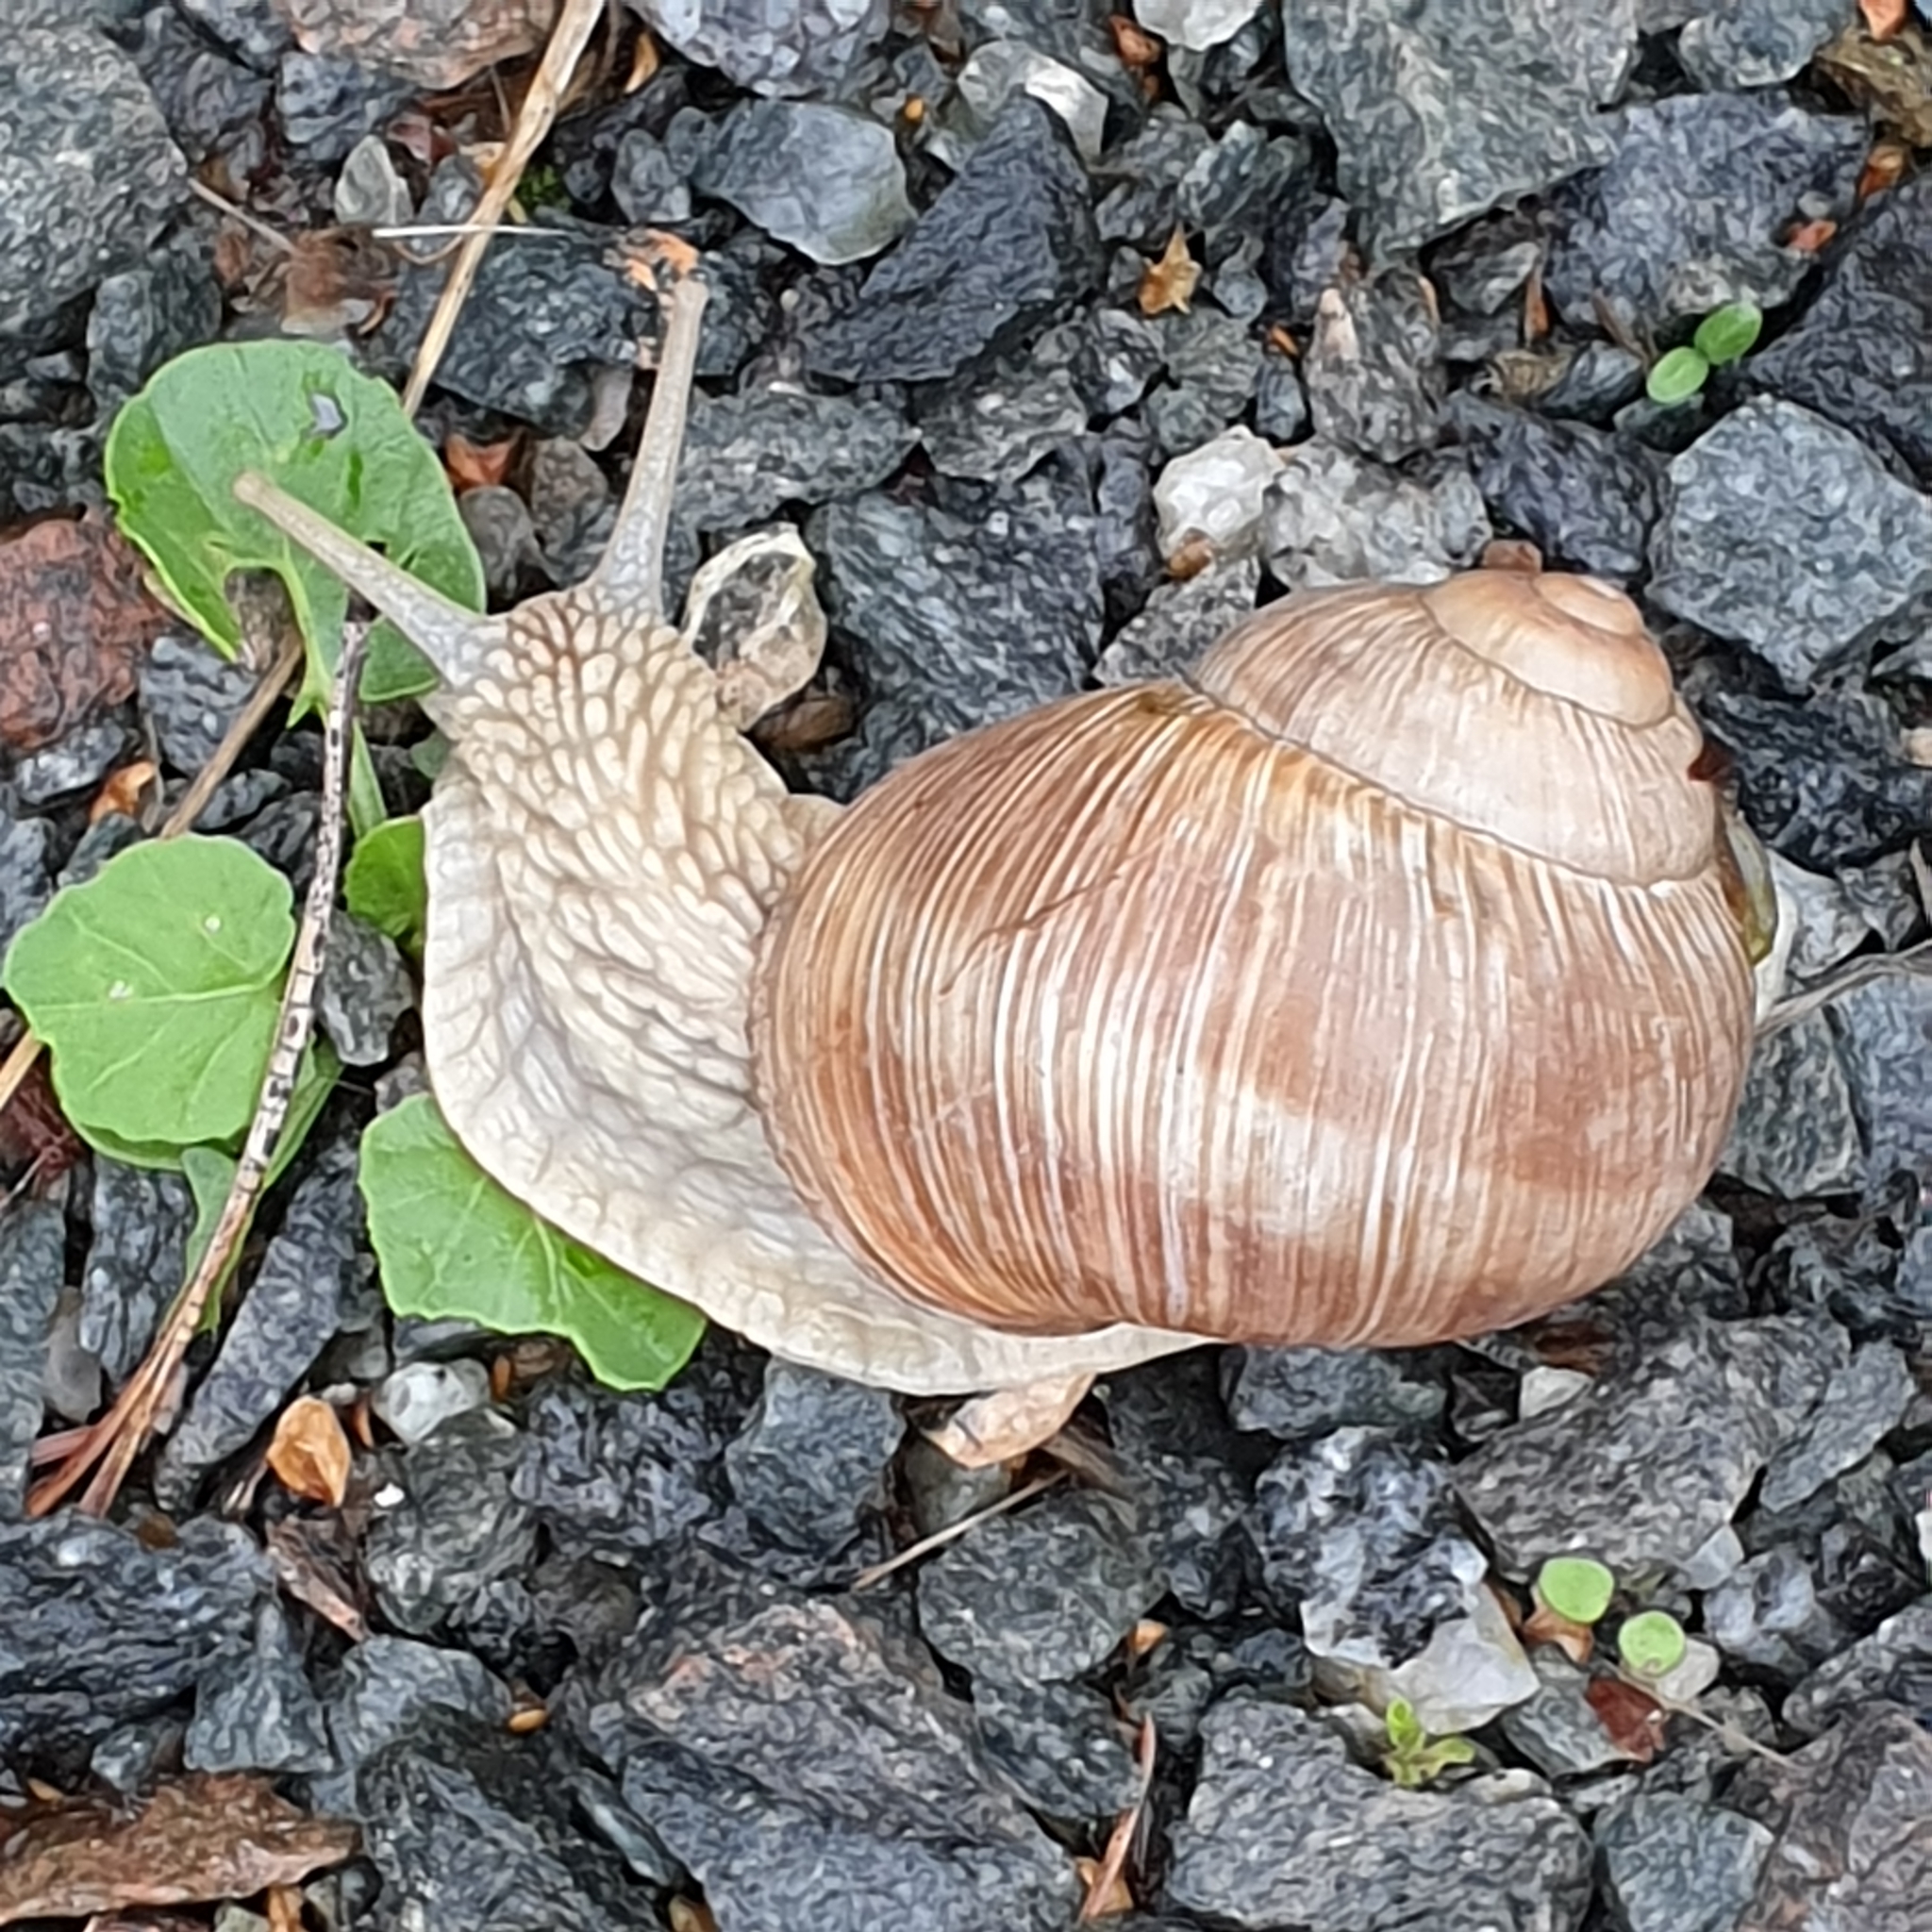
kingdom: Animalia
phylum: Mollusca
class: Gastropoda
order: Stylommatophora
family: Helicidae
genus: Helix
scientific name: Helix pomatia
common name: Roman snail
